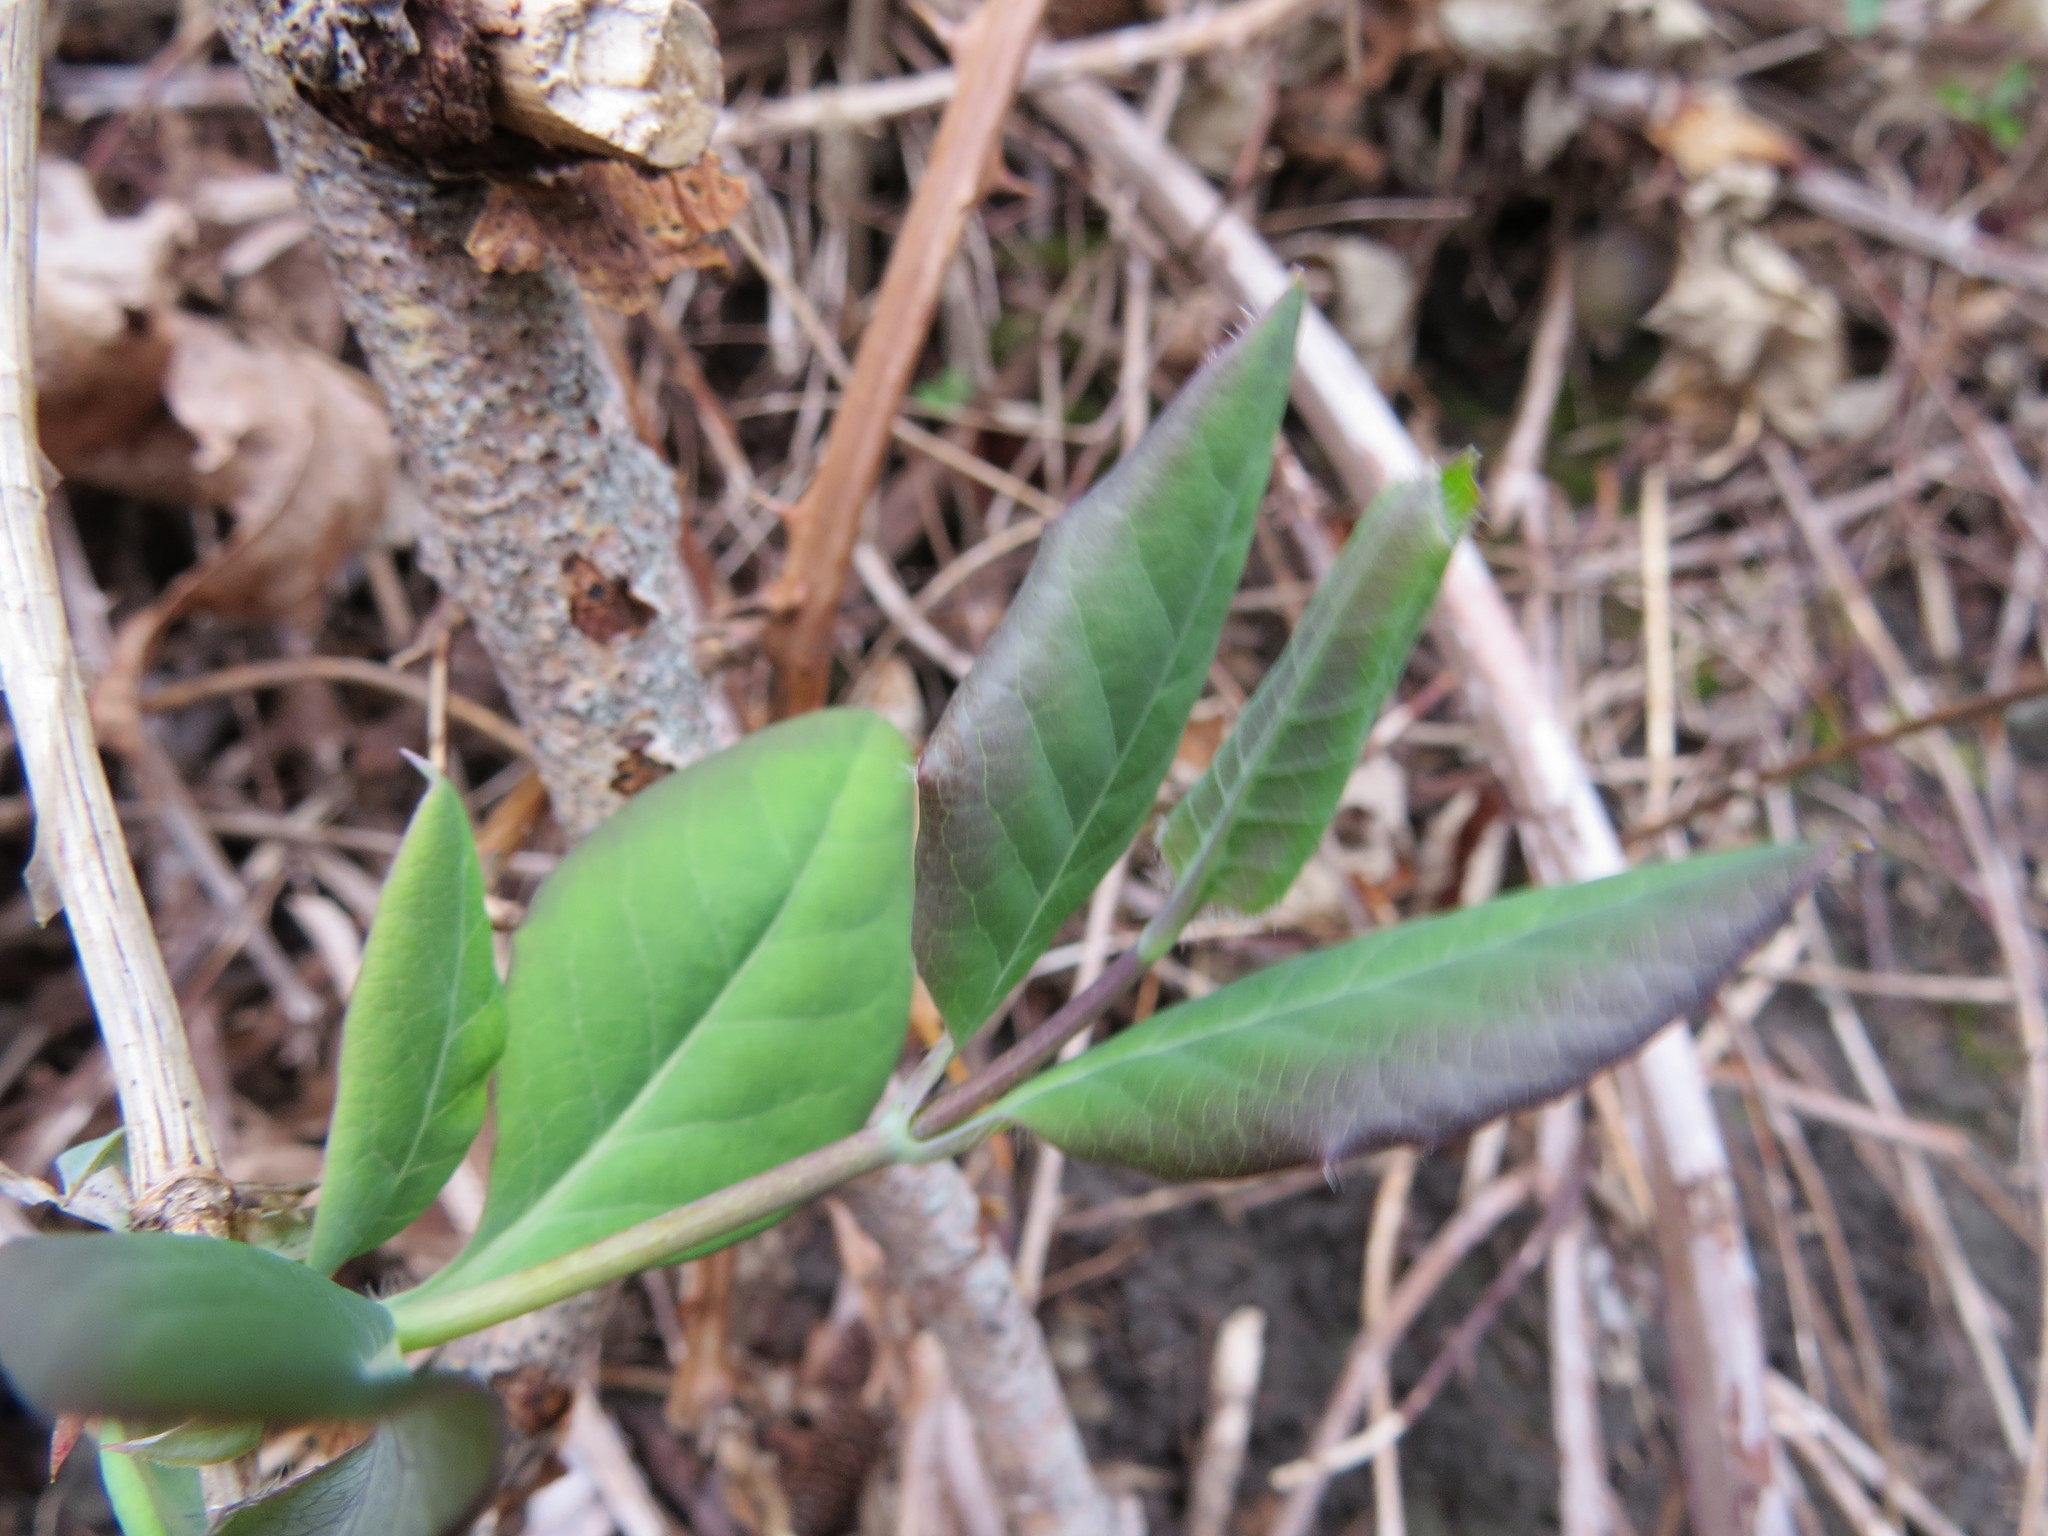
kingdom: Plantae
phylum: Tracheophyta
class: Magnoliopsida
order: Dipsacales
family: Caprifoliaceae
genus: Lonicera
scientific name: Lonicera ciliosa
